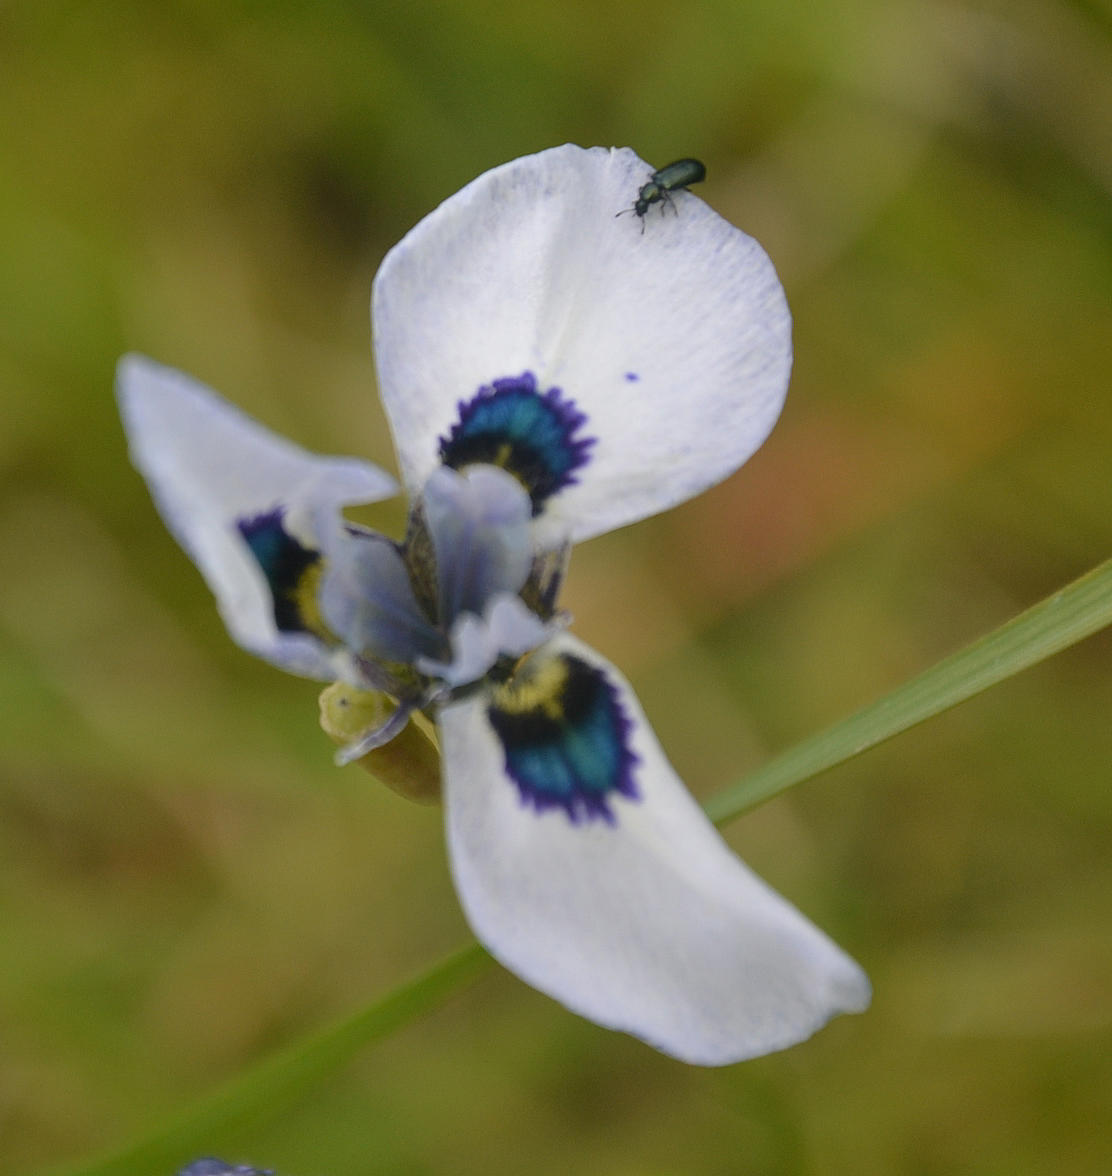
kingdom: Plantae
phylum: Tracheophyta
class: Liliopsida
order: Asparagales
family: Iridaceae
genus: Moraea
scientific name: Moraea aristata
